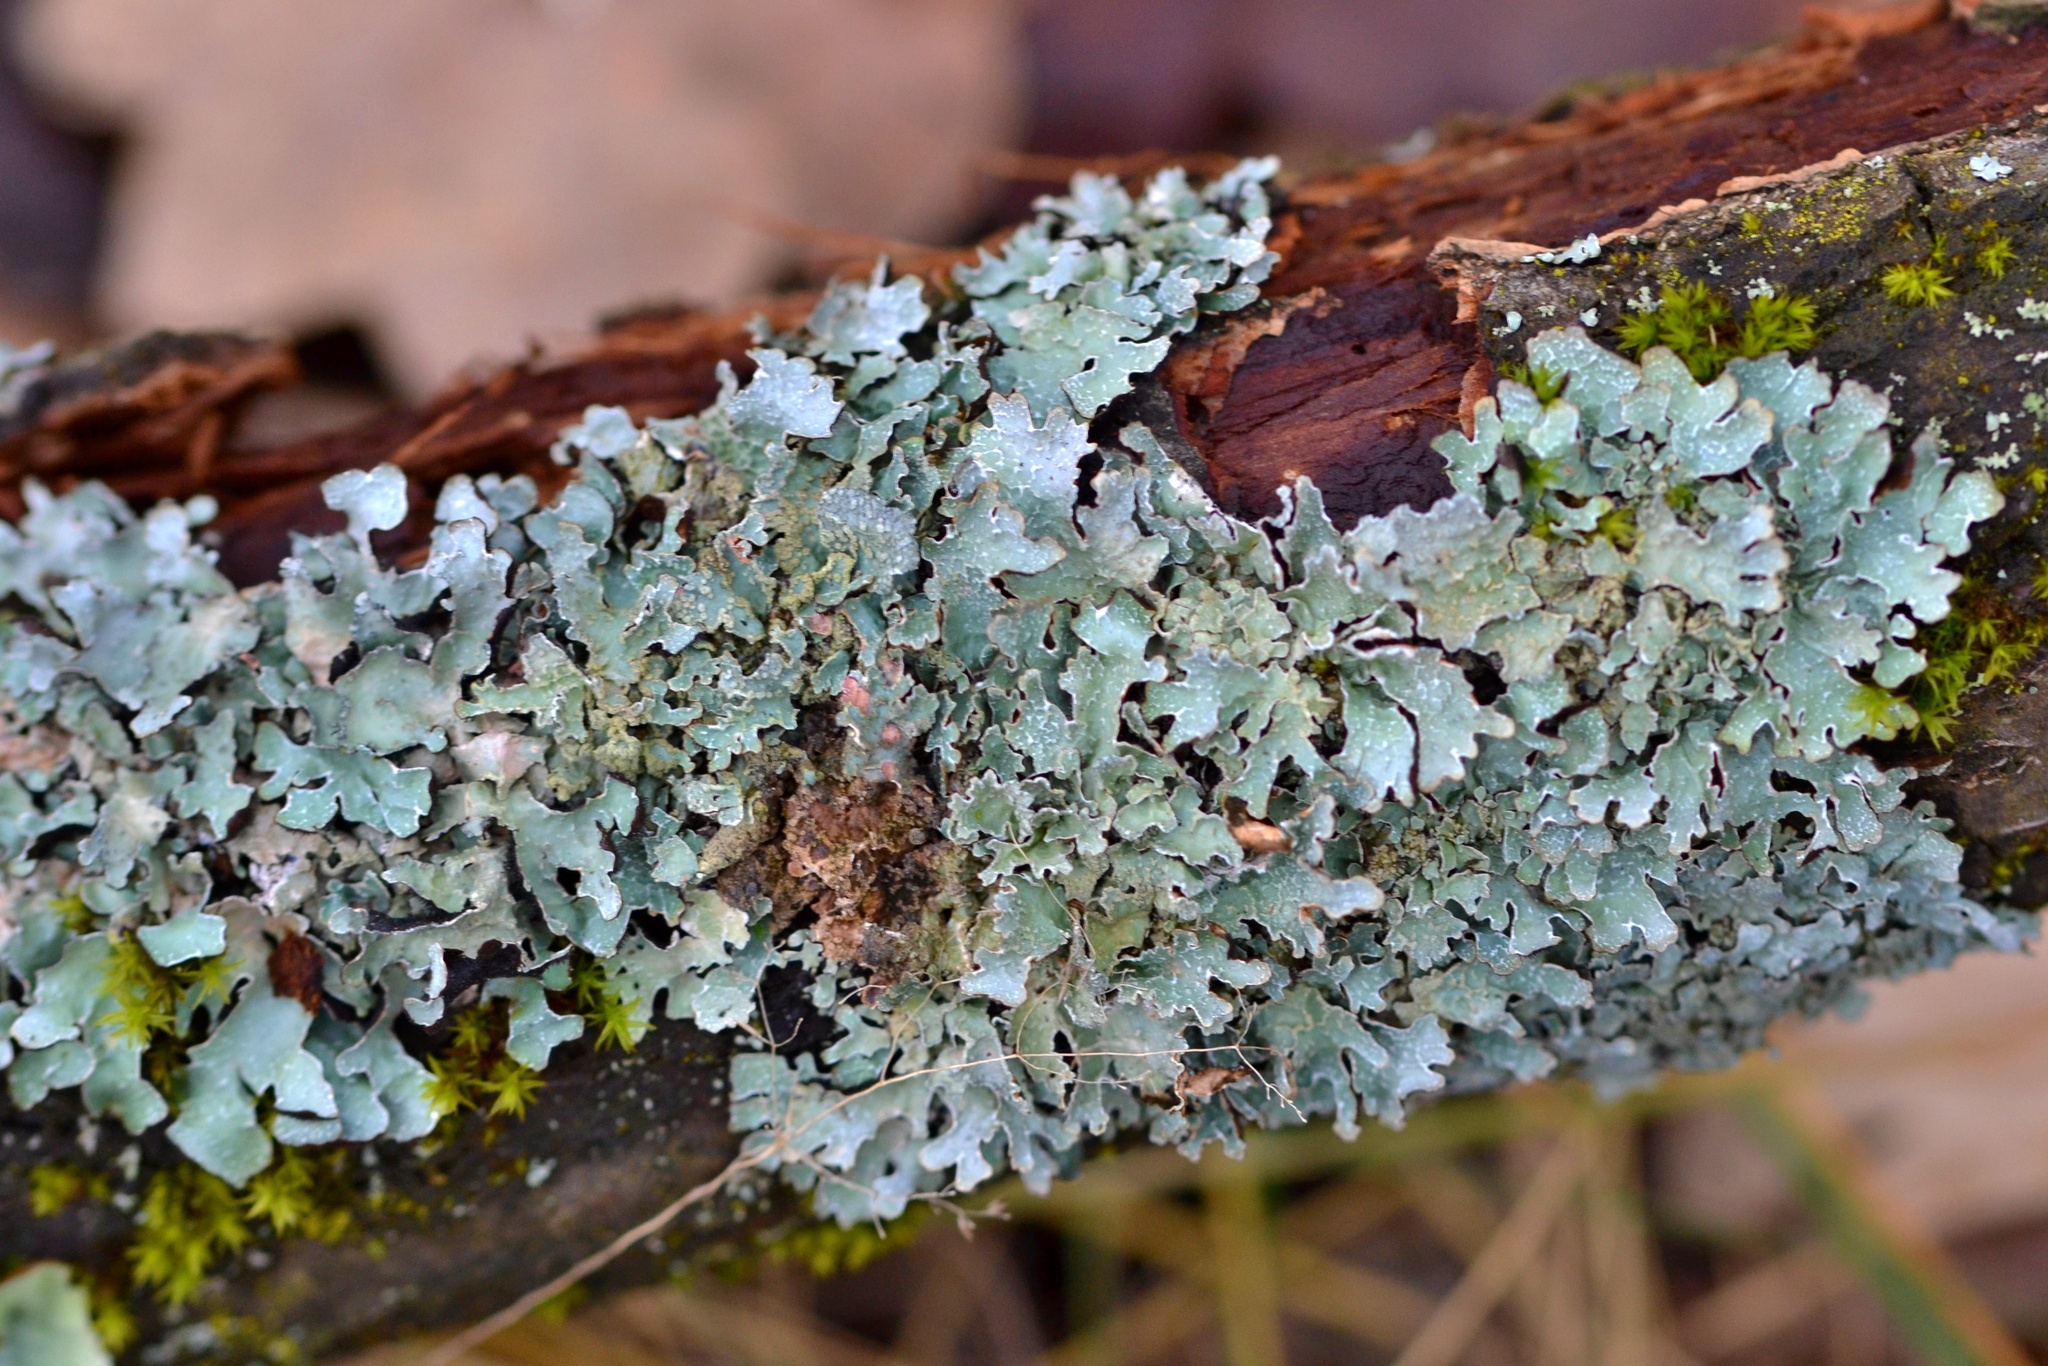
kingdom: Fungi
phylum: Ascomycota
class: Lecanoromycetes
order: Lecanorales
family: Parmeliaceae
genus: Parmelia
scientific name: Parmelia sulcata
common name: Netted shield lichen
